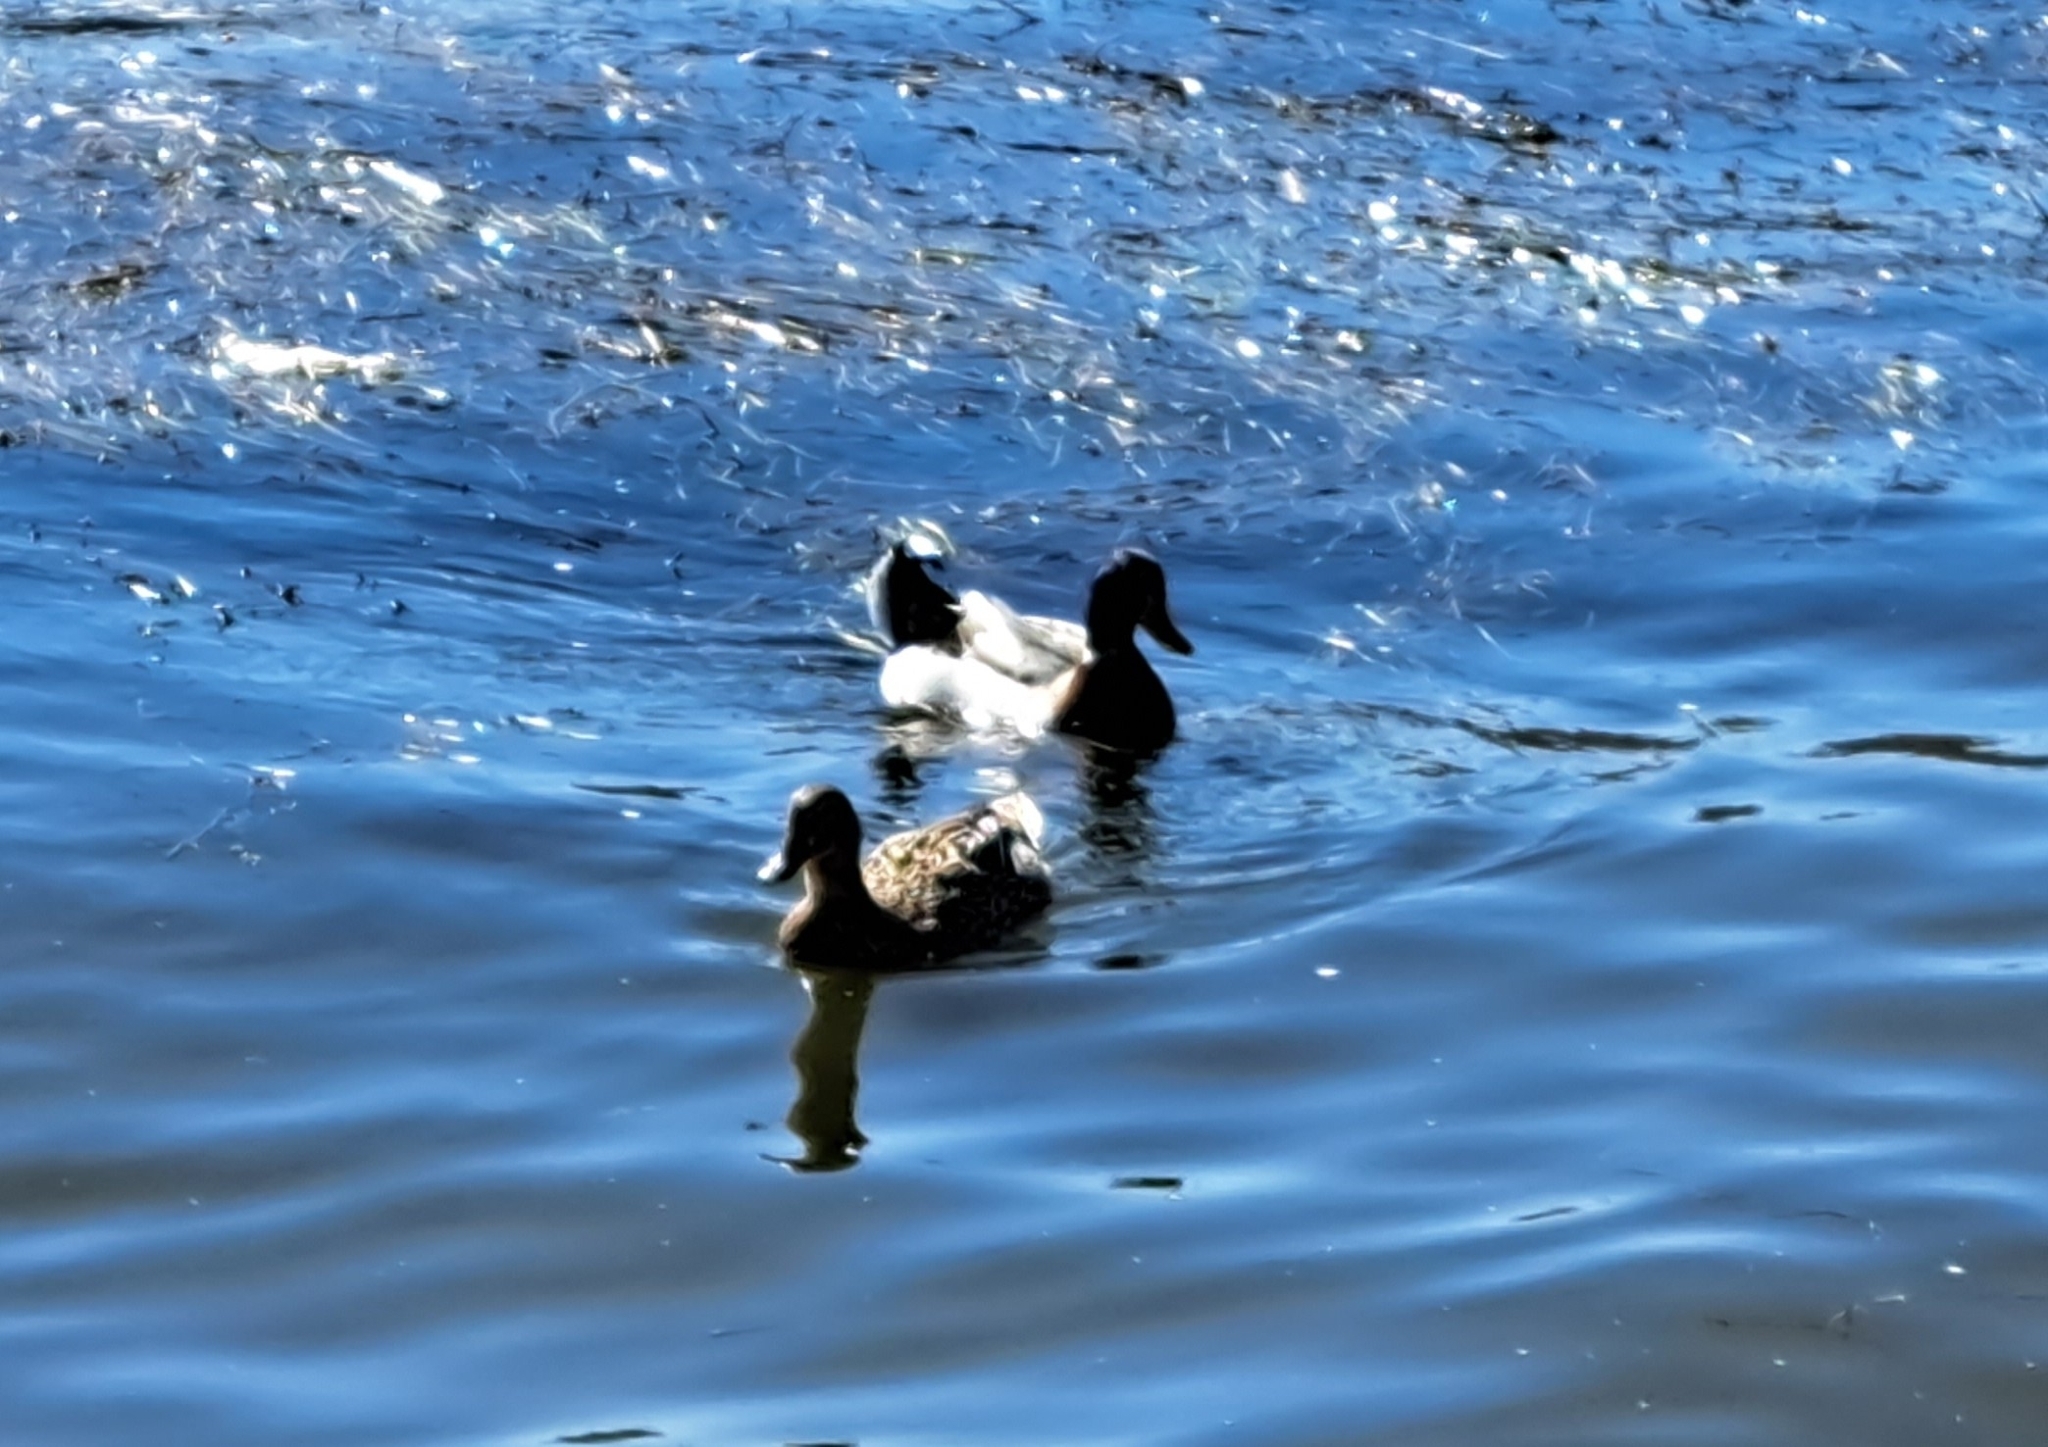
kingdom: Animalia
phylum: Chordata
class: Aves
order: Anseriformes
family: Anatidae
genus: Anas
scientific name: Anas platyrhynchos
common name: Mallard
